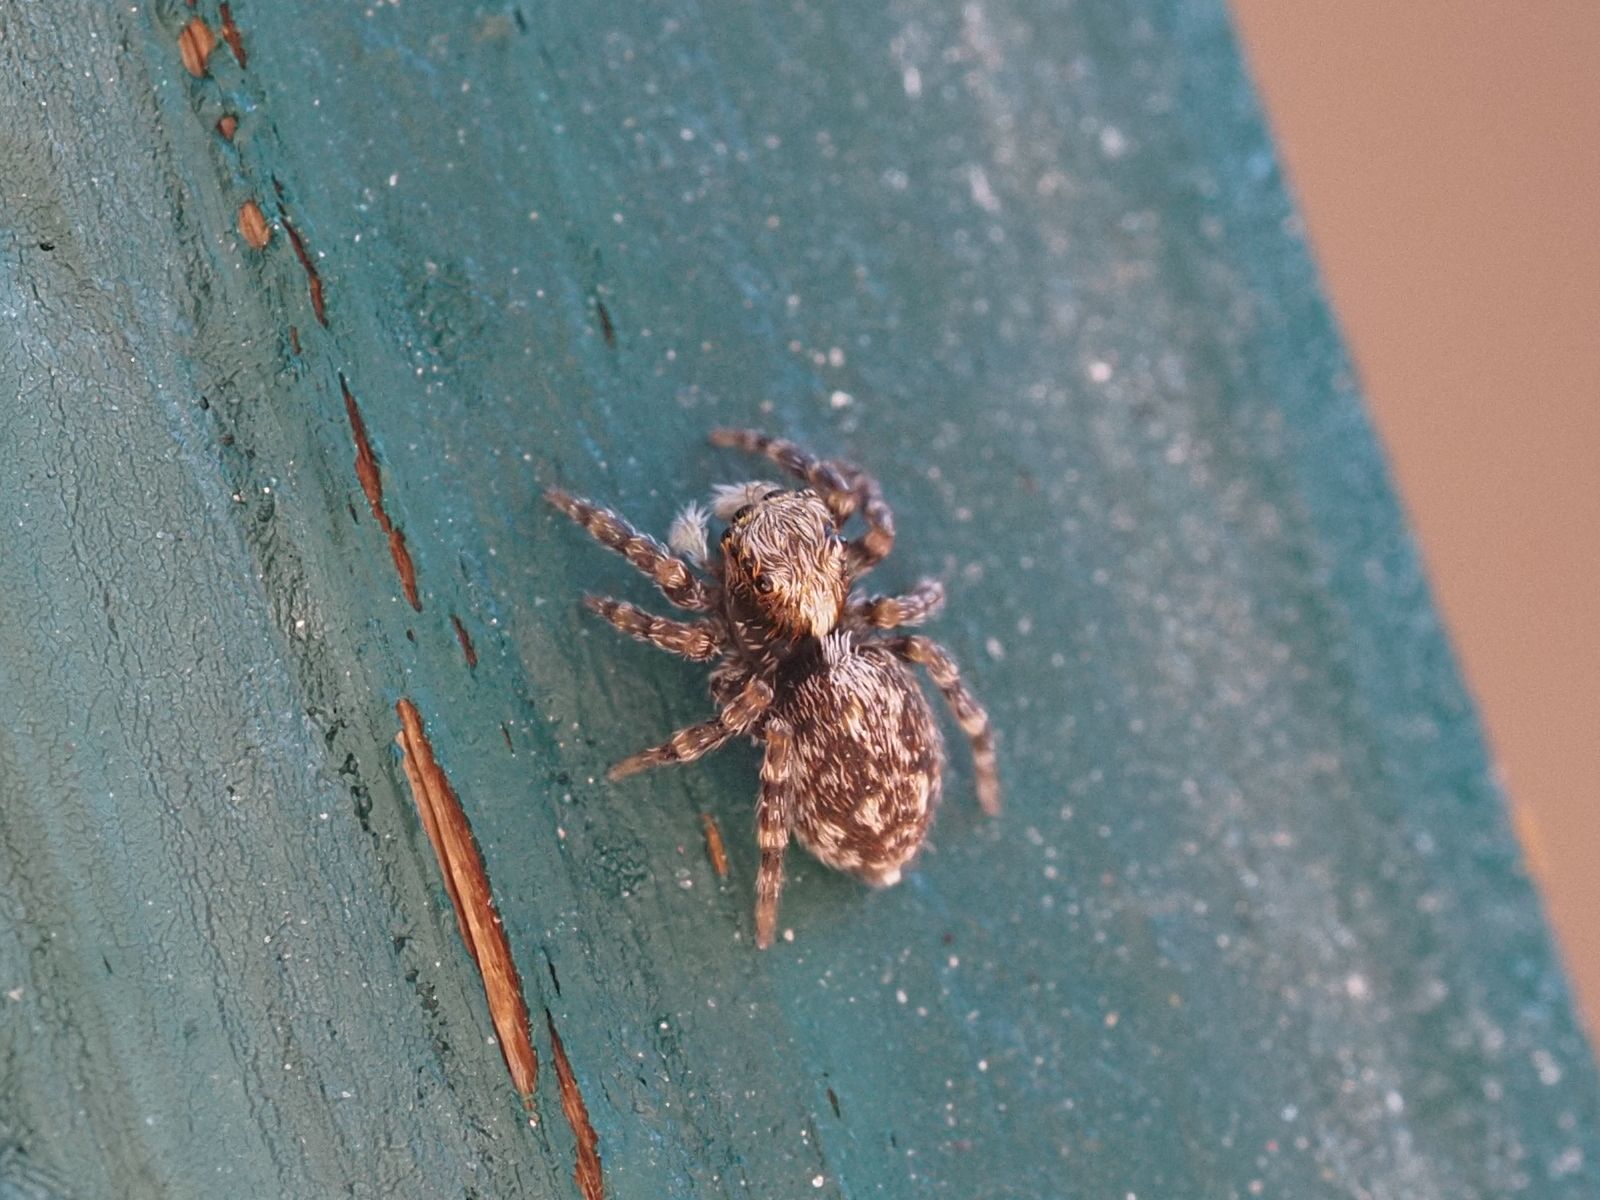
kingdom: Animalia
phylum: Arthropoda
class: Arachnida
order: Araneae
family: Salticidae
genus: Pseudeuophrys
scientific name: Pseudeuophrys lanigera
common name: Jumping spider
